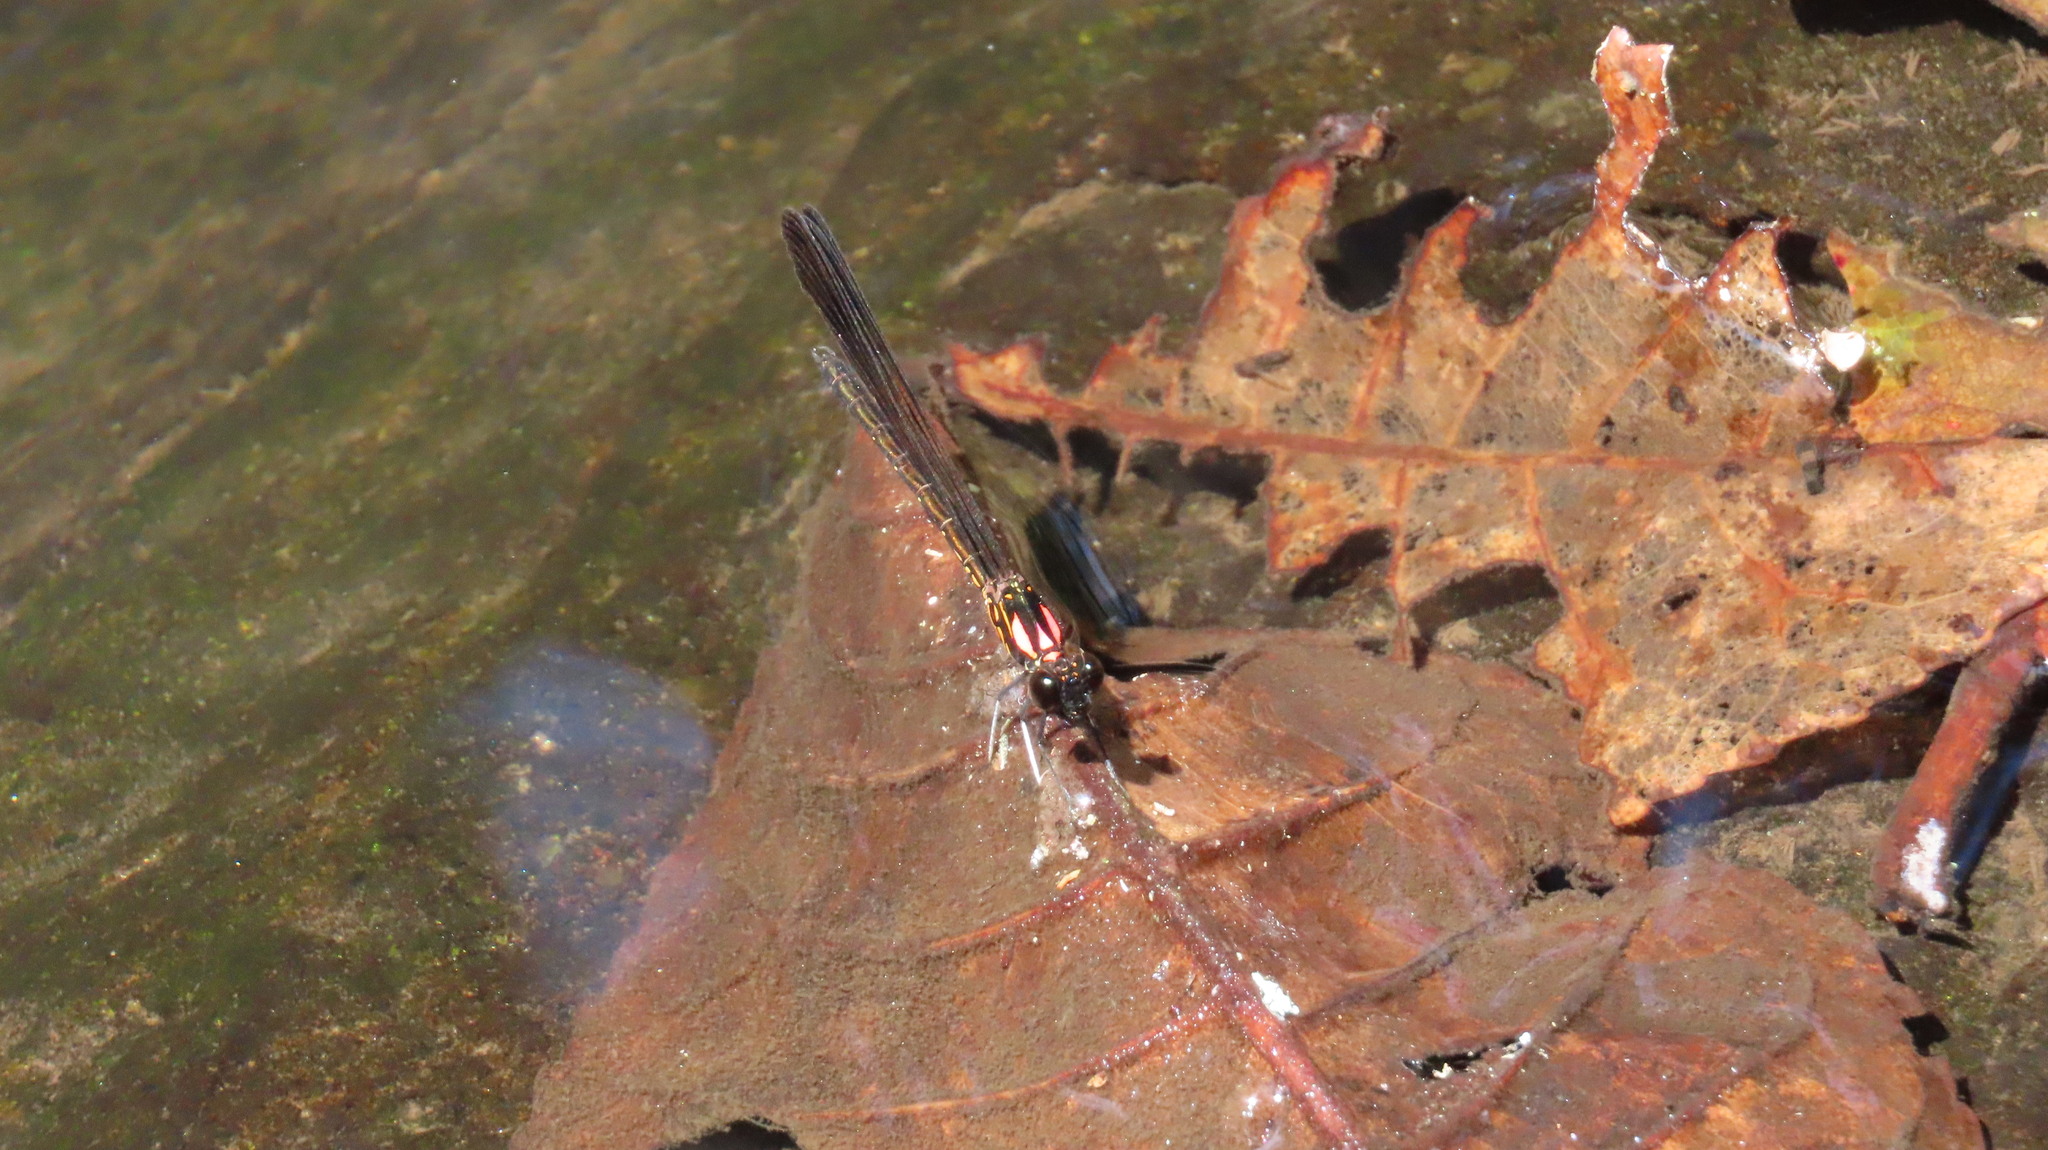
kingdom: Animalia
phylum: Arthropoda
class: Insecta
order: Odonata
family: Chlorocyphidae
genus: Heliocypha
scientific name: Heliocypha bisignata
